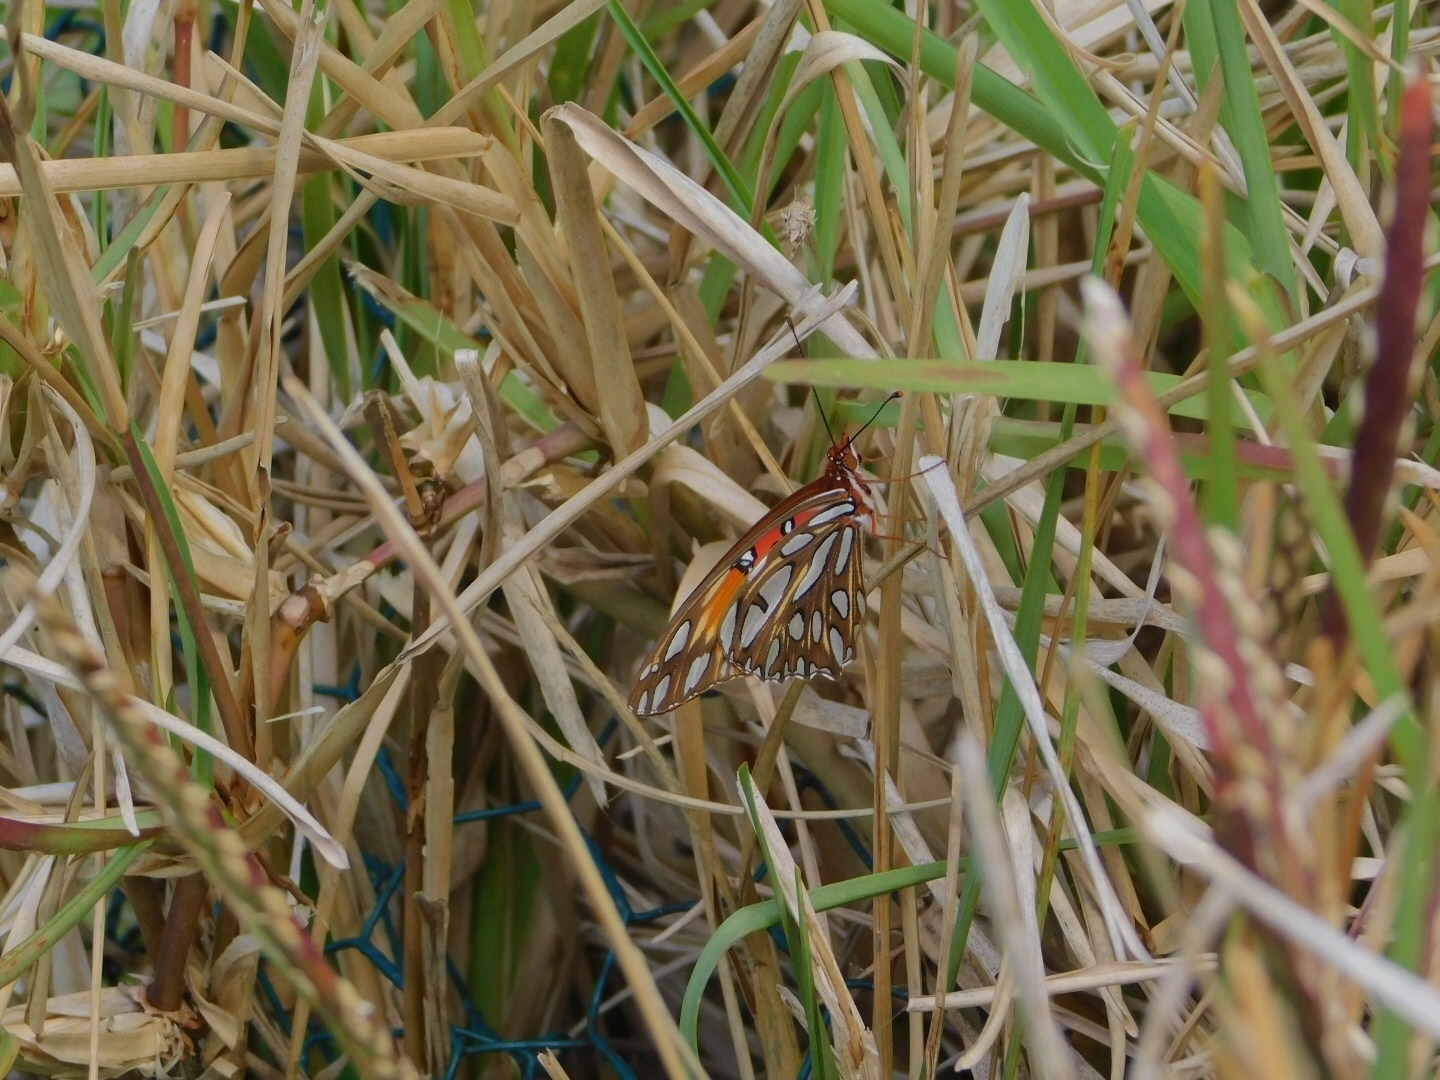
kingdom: Animalia
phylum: Arthropoda
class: Insecta
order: Lepidoptera
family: Nymphalidae
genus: Dione
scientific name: Dione vanillae
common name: Gulf fritillary
